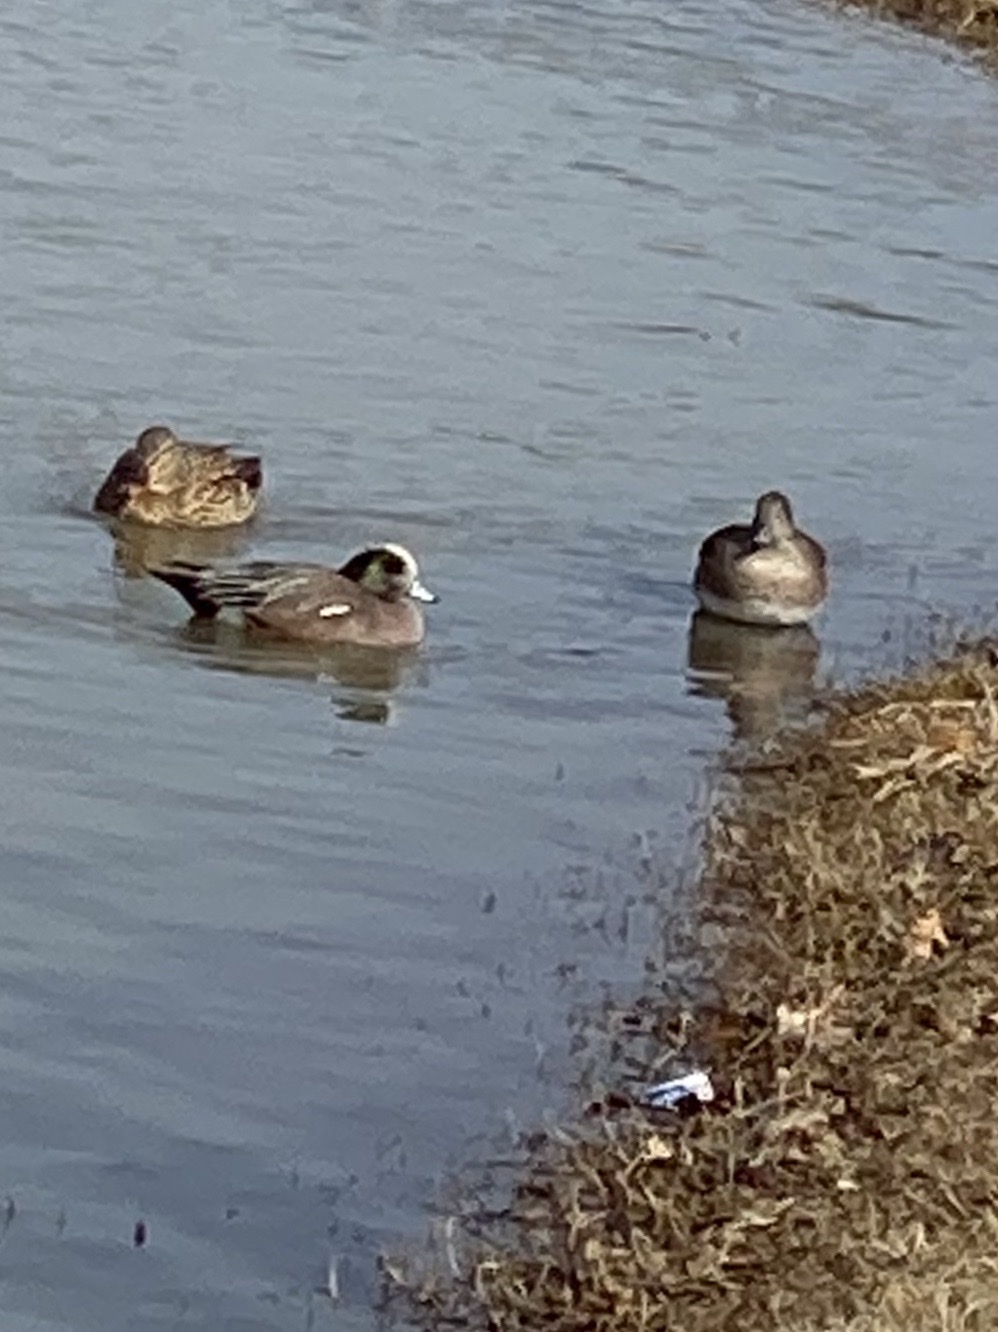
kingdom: Animalia
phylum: Chordata
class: Aves
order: Anseriformes
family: Anatidae
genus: Mareca
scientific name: Mareca americana
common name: American wigeon
